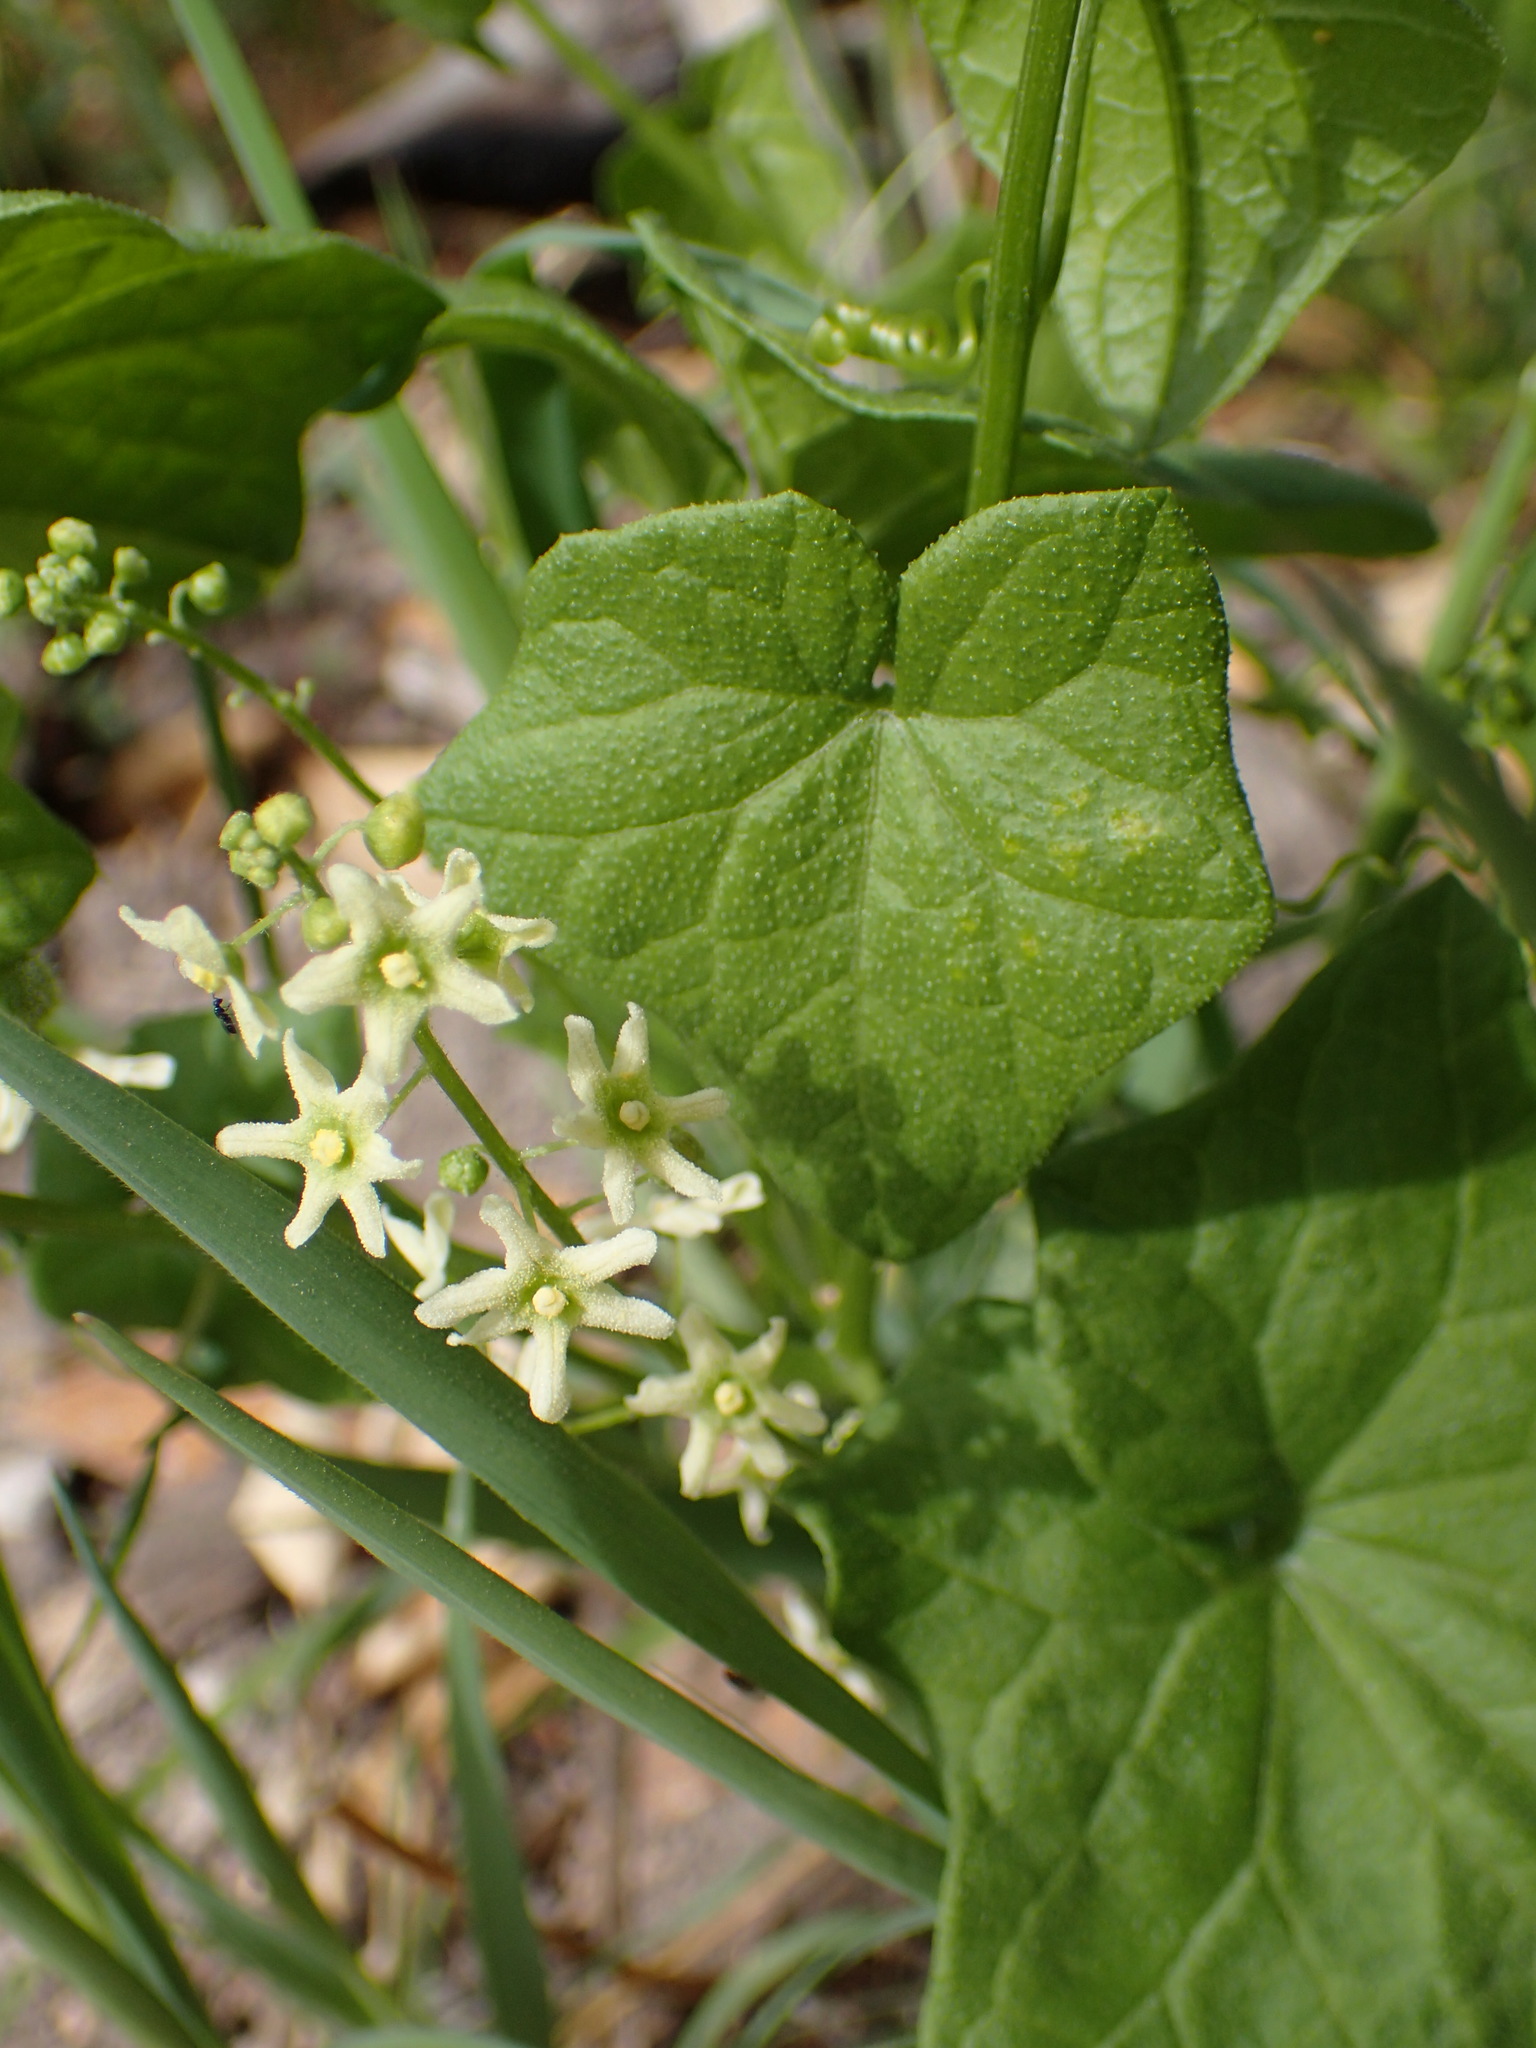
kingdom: Plantae
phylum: Tracheophyta
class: Magnoliopsida
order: Cucurbitales
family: Cucurbitaceae
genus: Marah
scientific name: Marah fabacea
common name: California manroot
